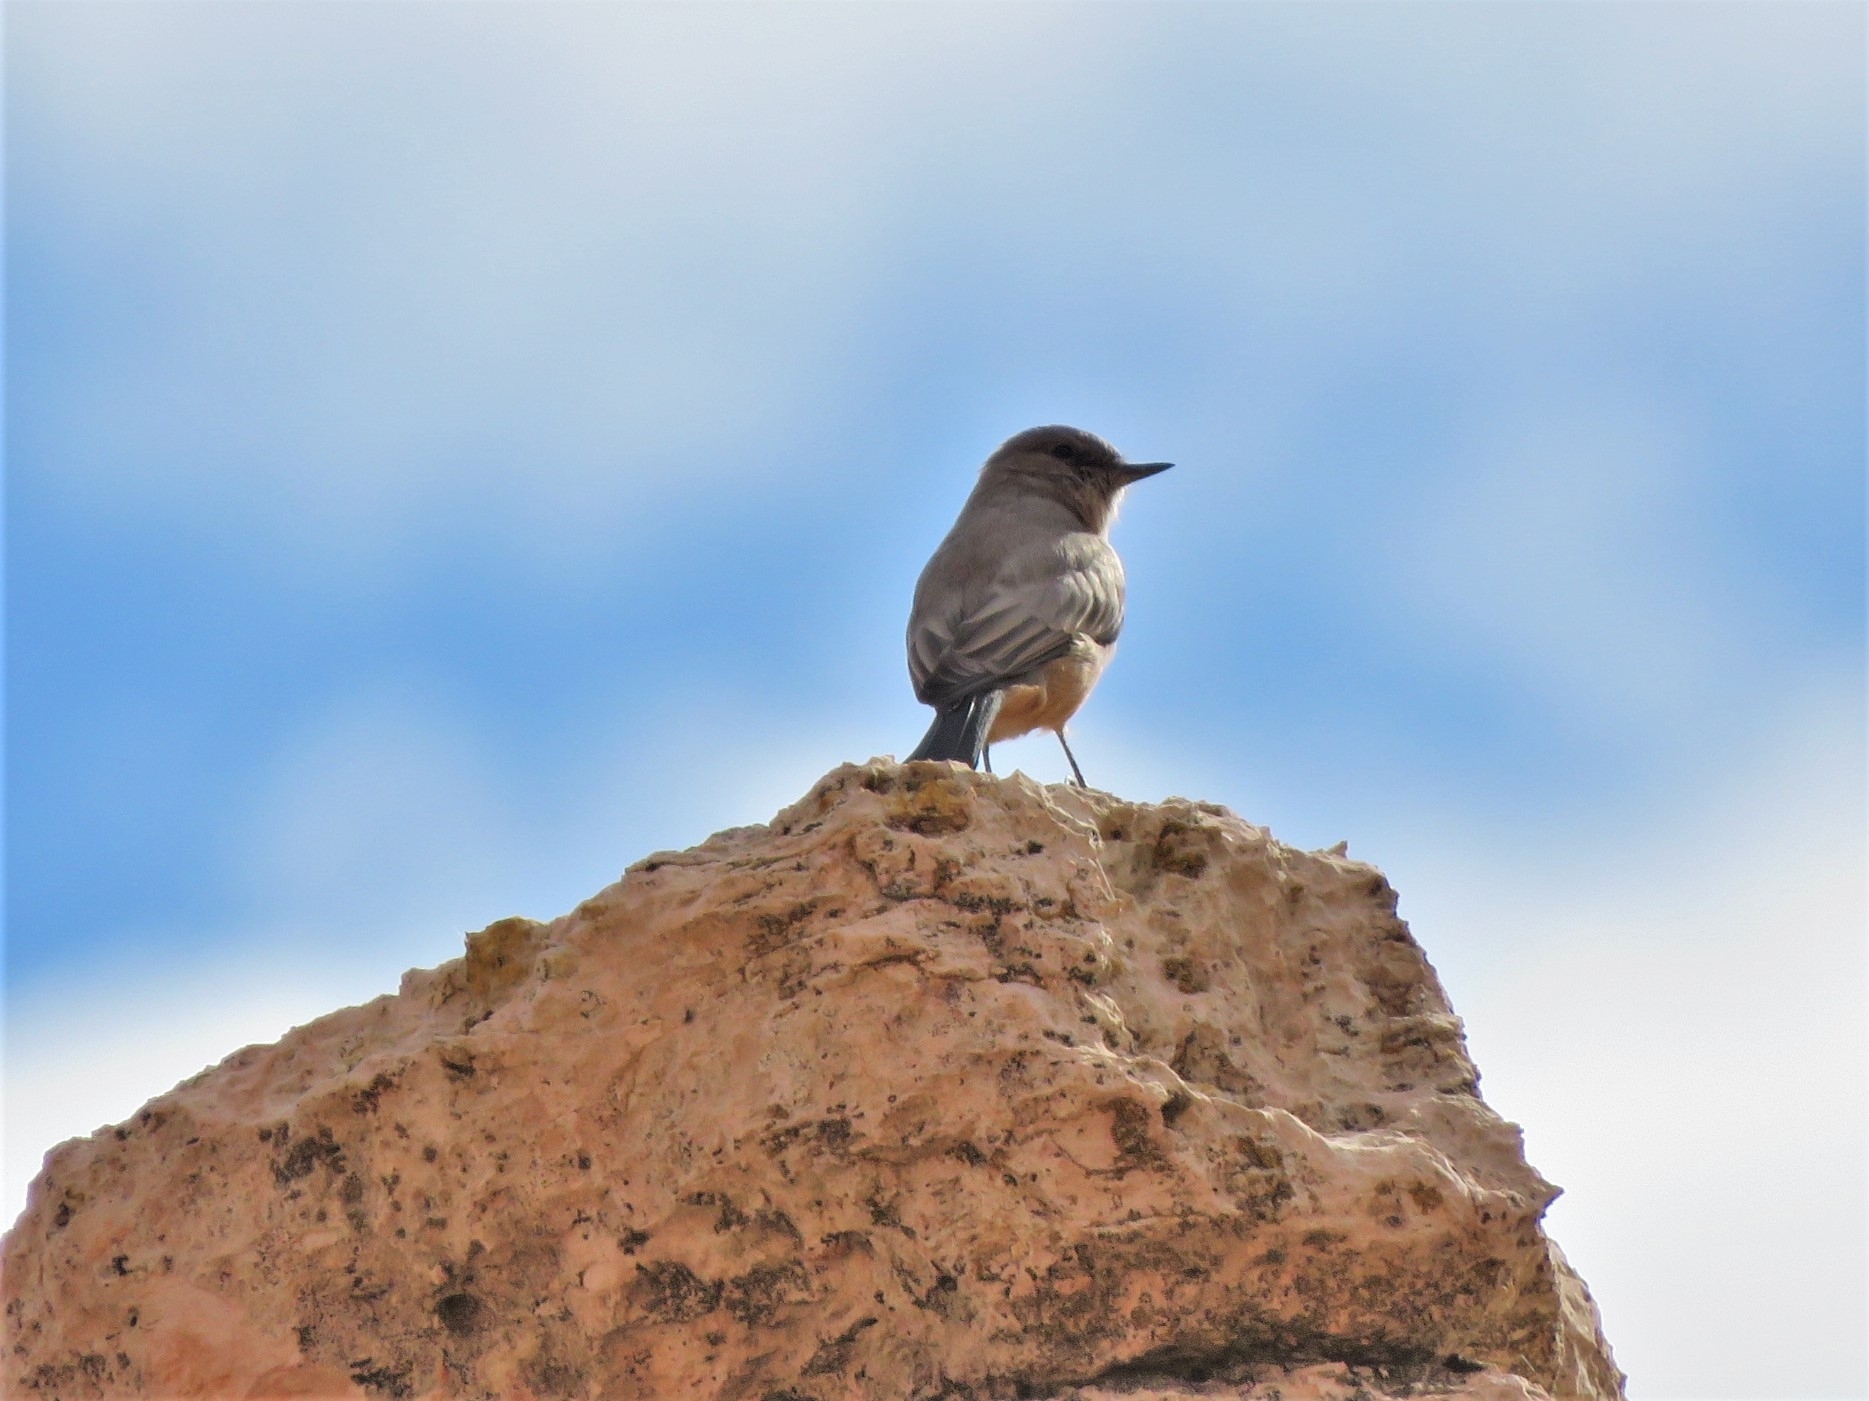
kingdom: Animalia
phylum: Chordata
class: Aves
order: Passeriformes
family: Tyrannidae
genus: Sayornis
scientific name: Sayornis saya
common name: Say's phoebe
